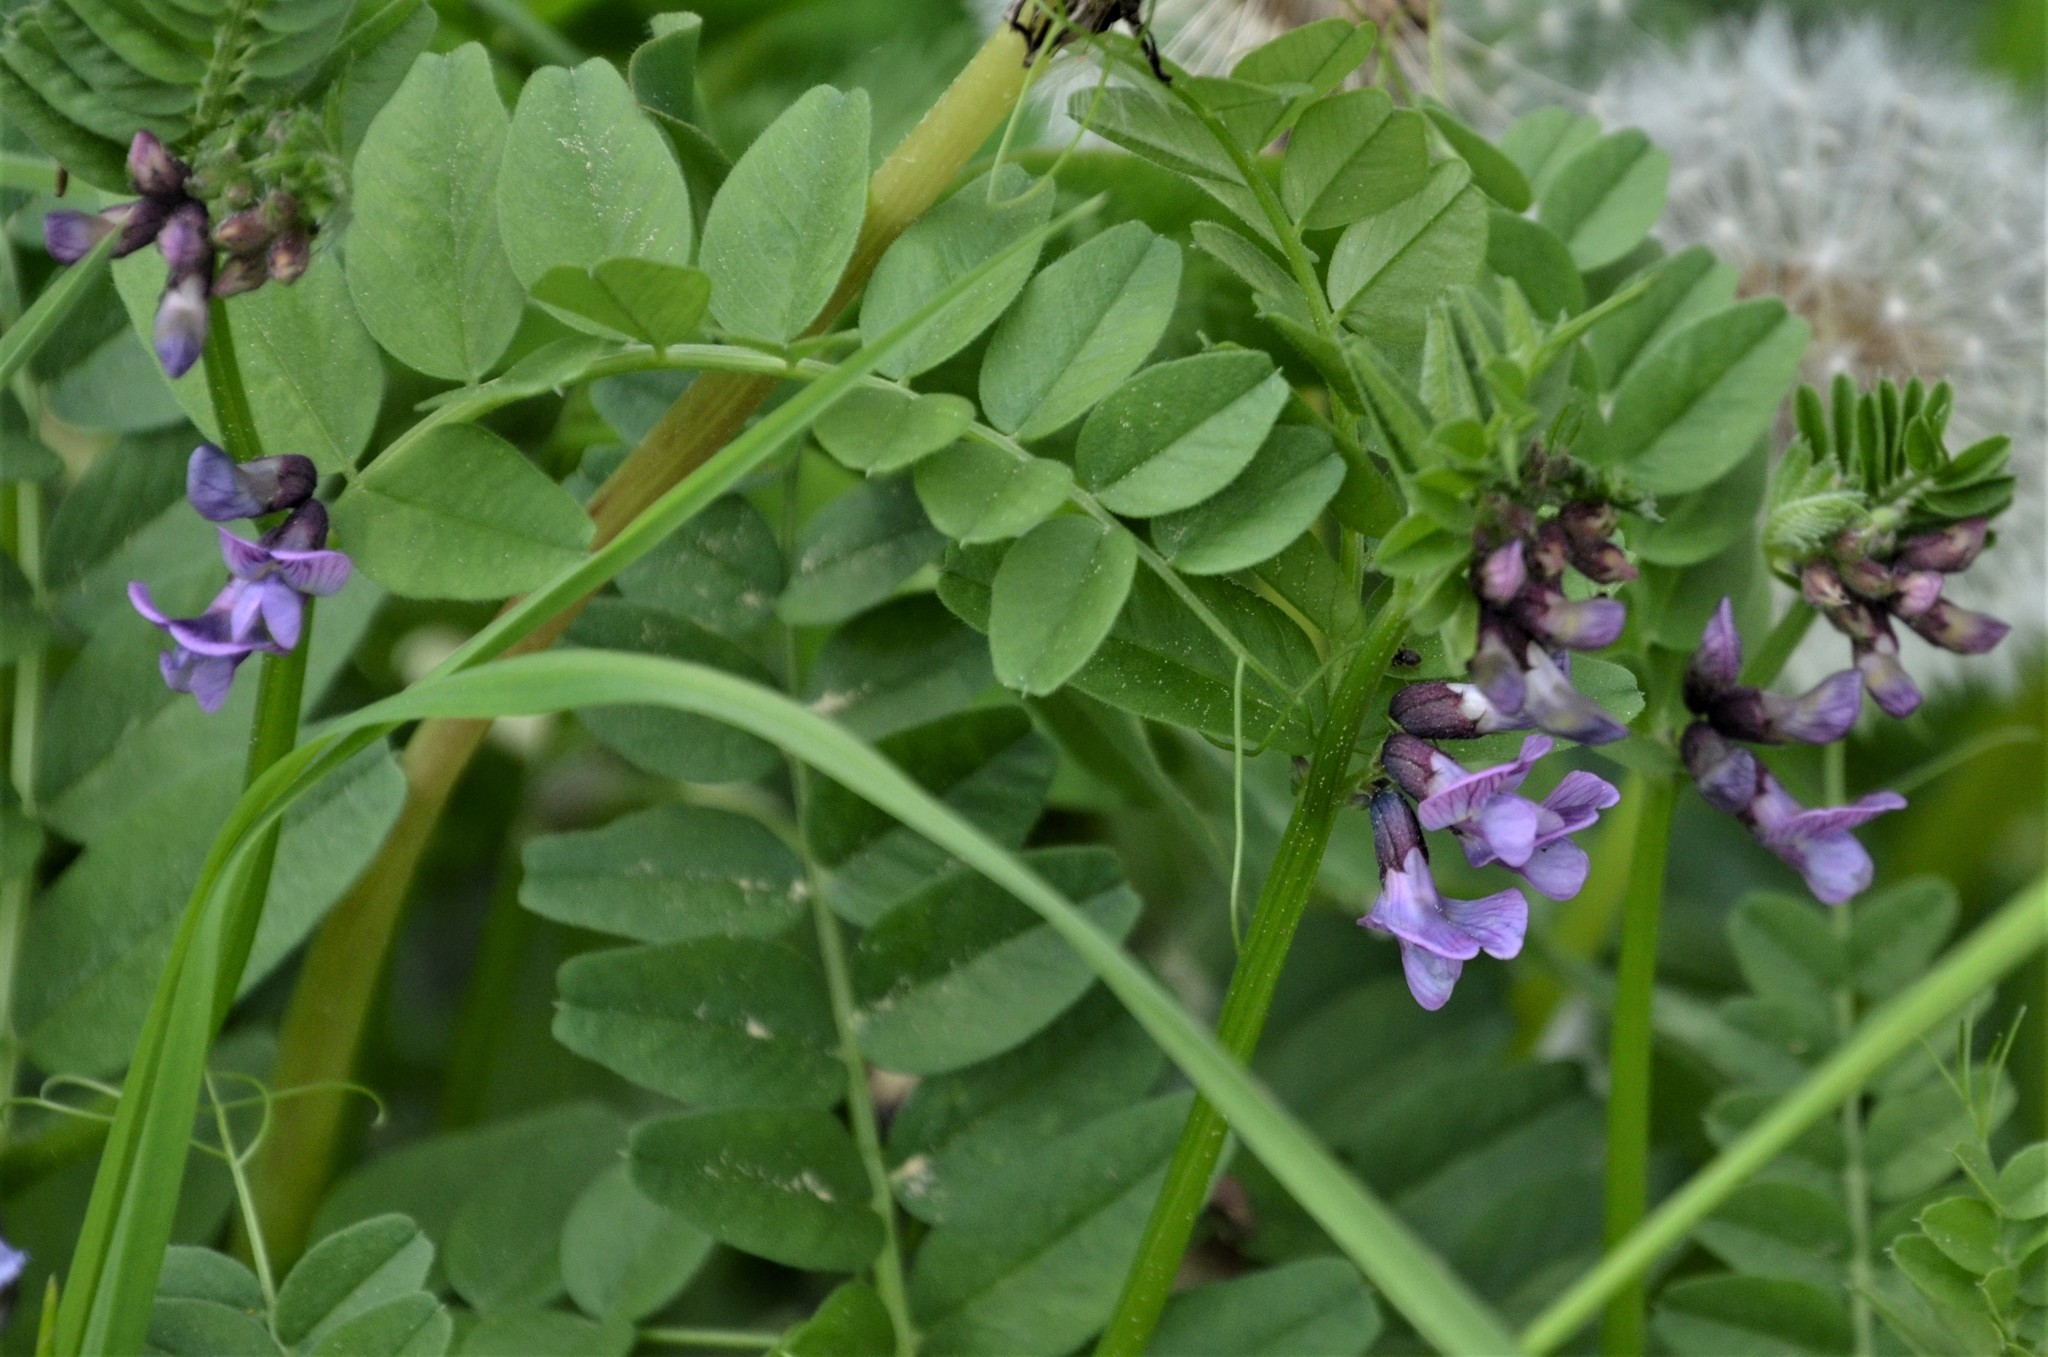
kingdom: Plantae
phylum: Tracheophyta
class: Magnoliopsida
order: Fabales
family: Fabaceae
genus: Vicia
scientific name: Vicia sepium
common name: Bush vetch
